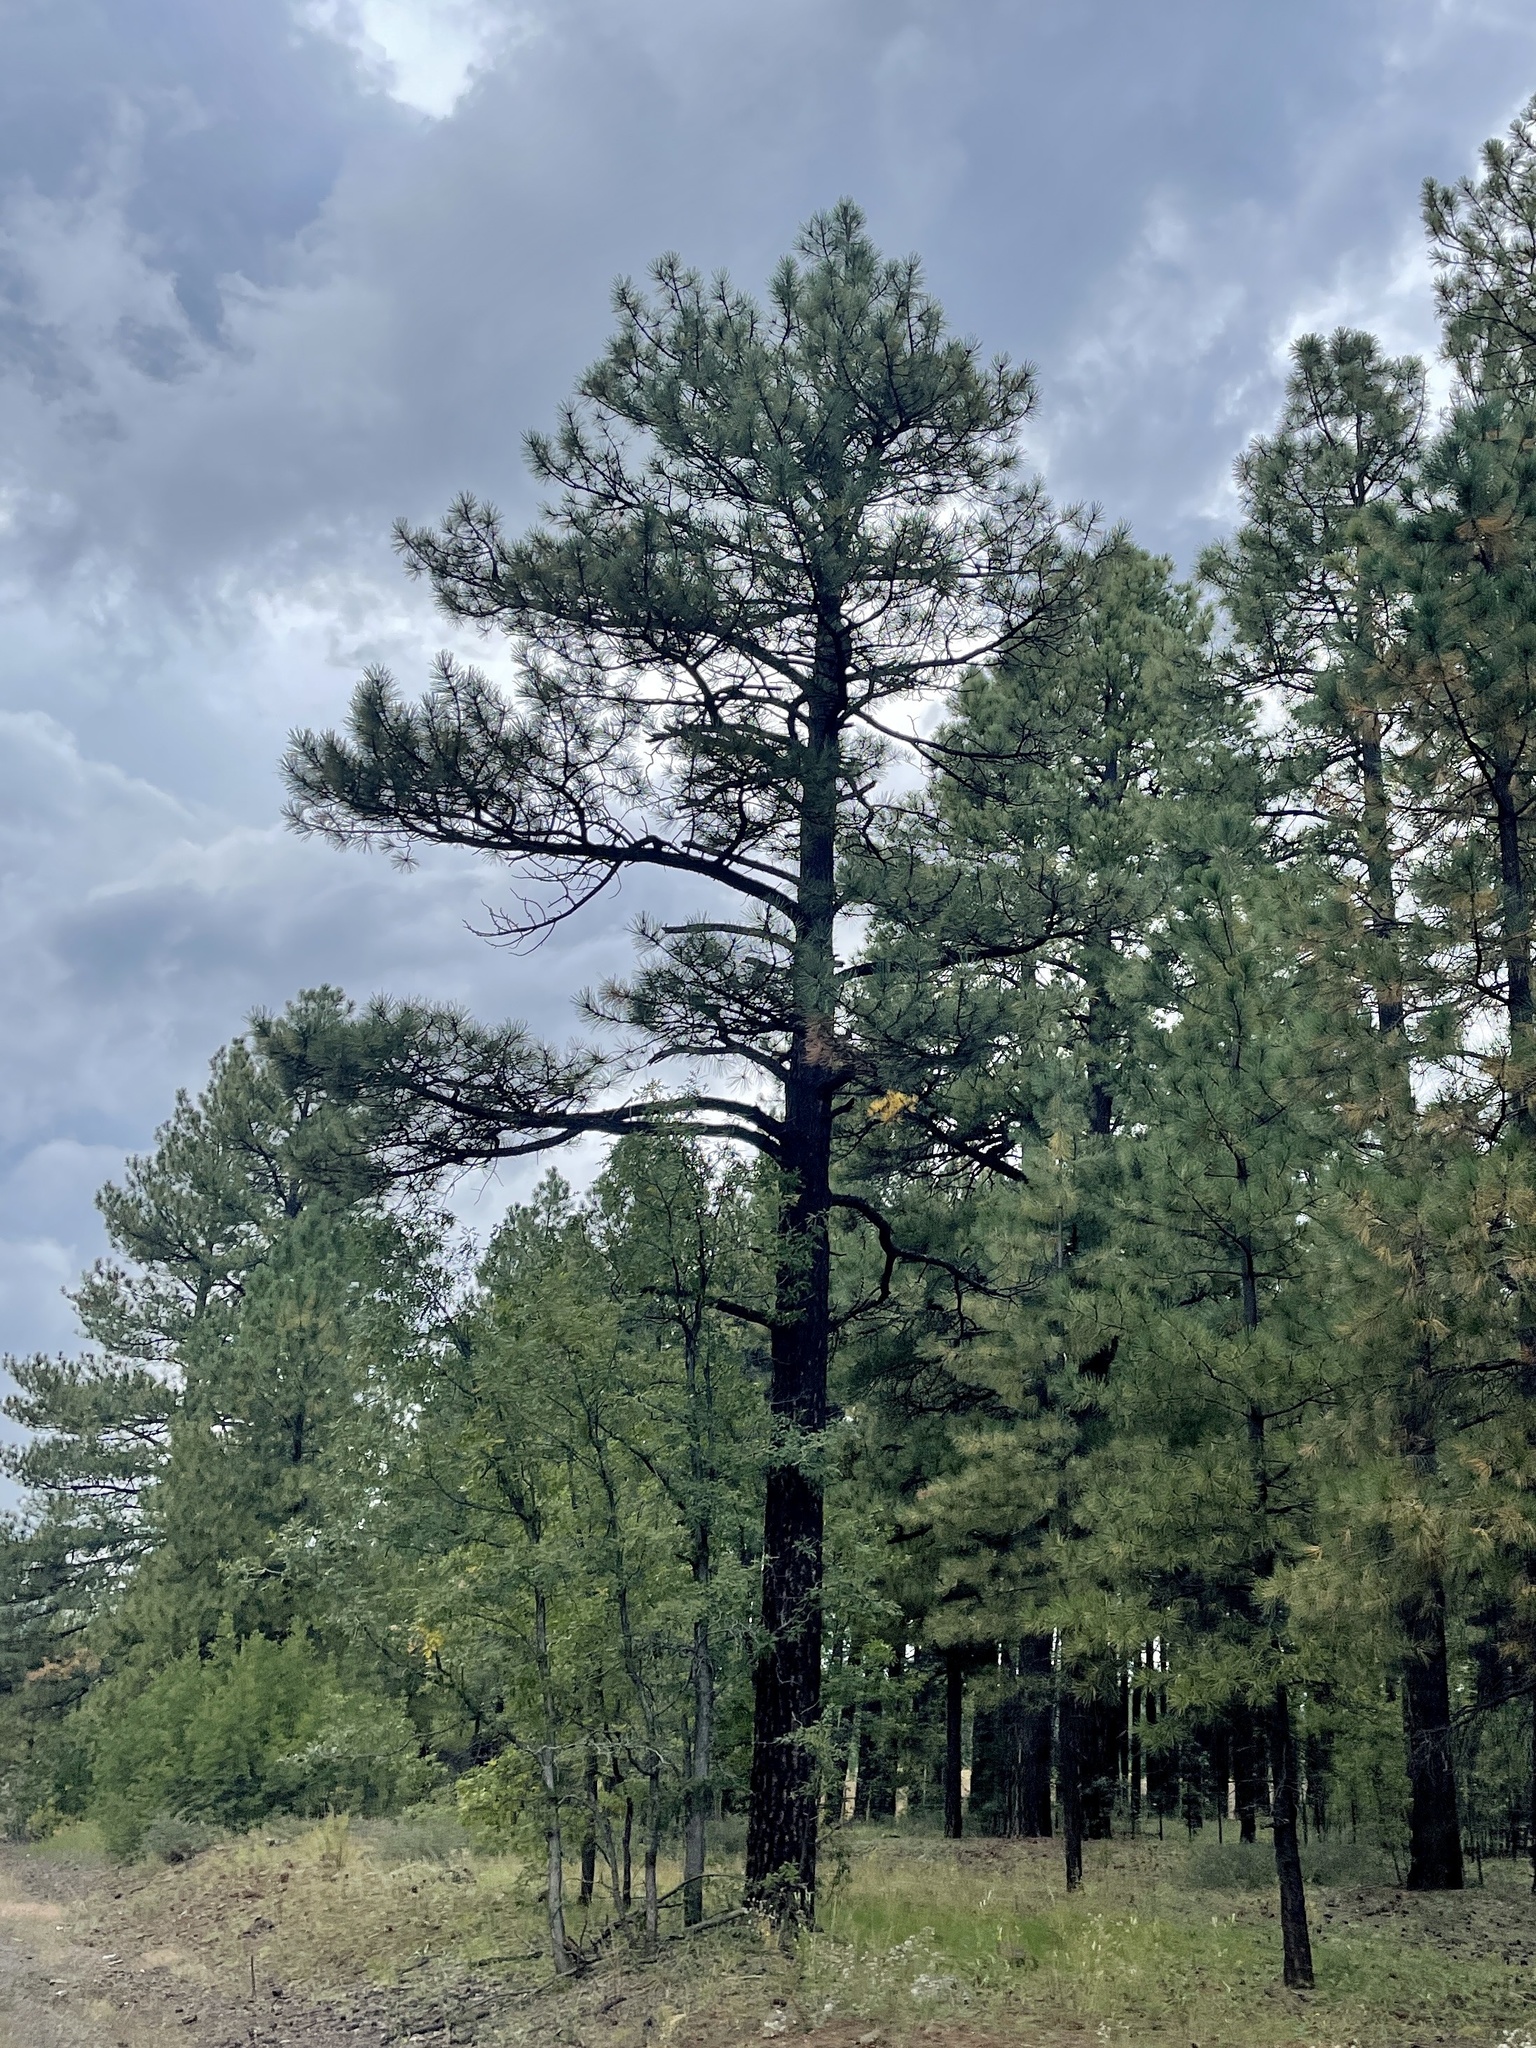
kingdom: Plantae
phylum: Tracheophyta
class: Pinopsida
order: Pinales
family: Pinaceae
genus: Pinus
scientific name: Pinus ponderosa
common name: Western yellow-pine
